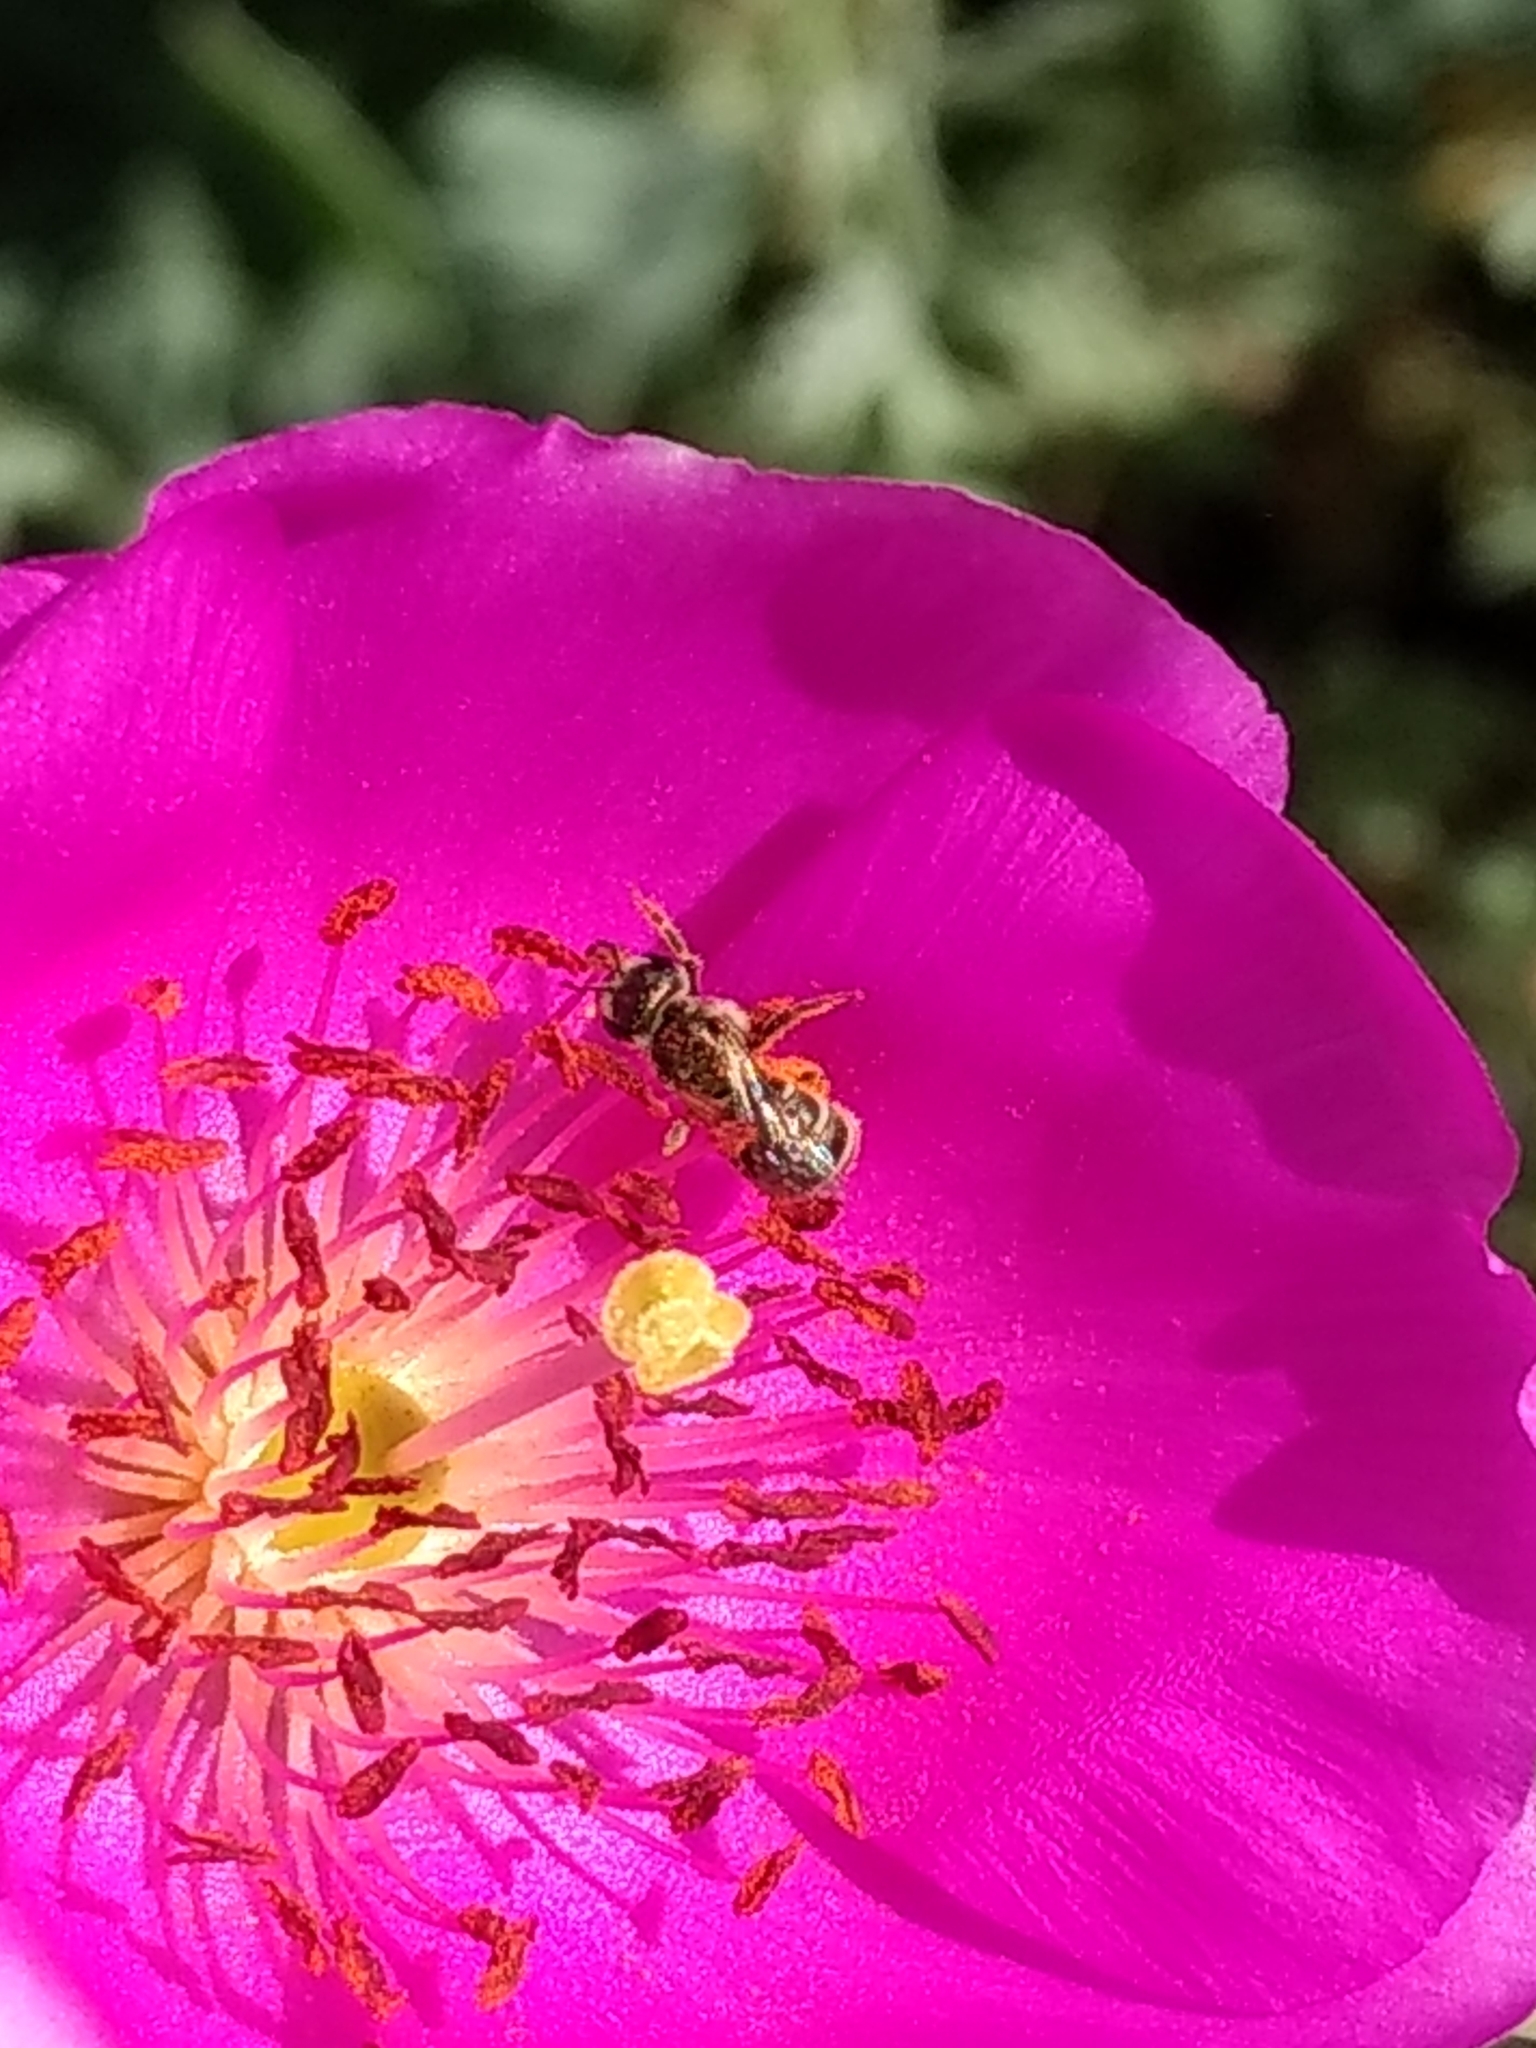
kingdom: Animalia
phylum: Arthropoda
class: Insecta
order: Hymenoptera
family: Halictidae
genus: Halictus
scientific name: Halictus tripartitus
